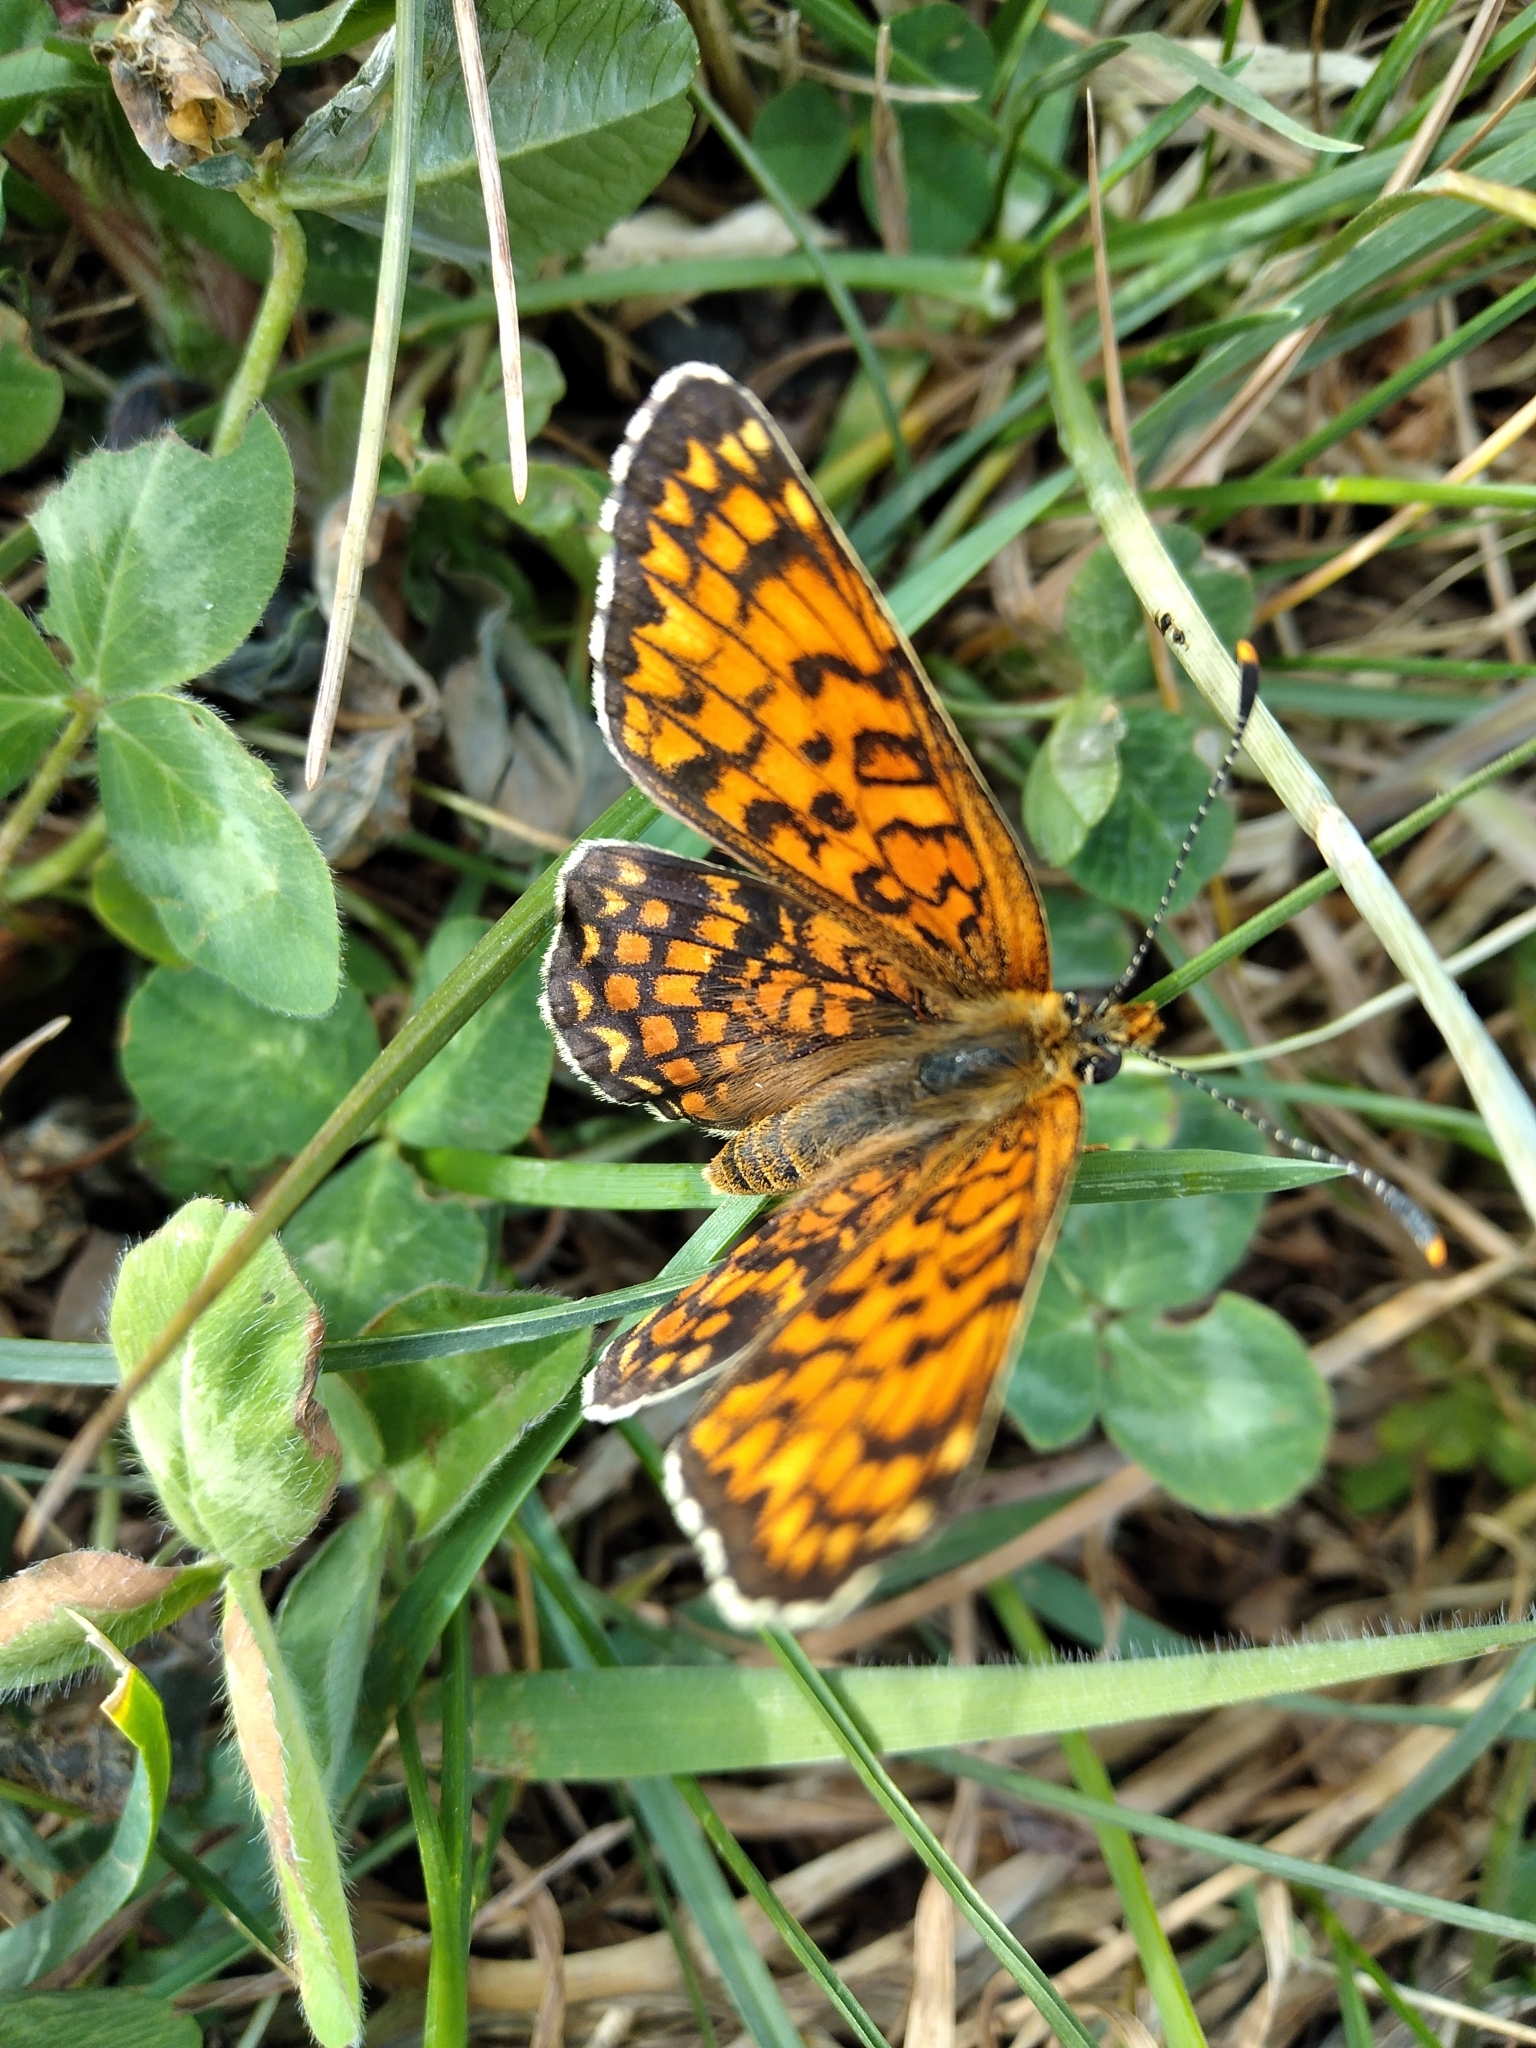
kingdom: Animalia
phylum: Arthropoda
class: Insecta
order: Lepidoptera
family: Nymphalidae
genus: Melitaea
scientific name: Melitaea phoebe
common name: Knapweed fritillary
